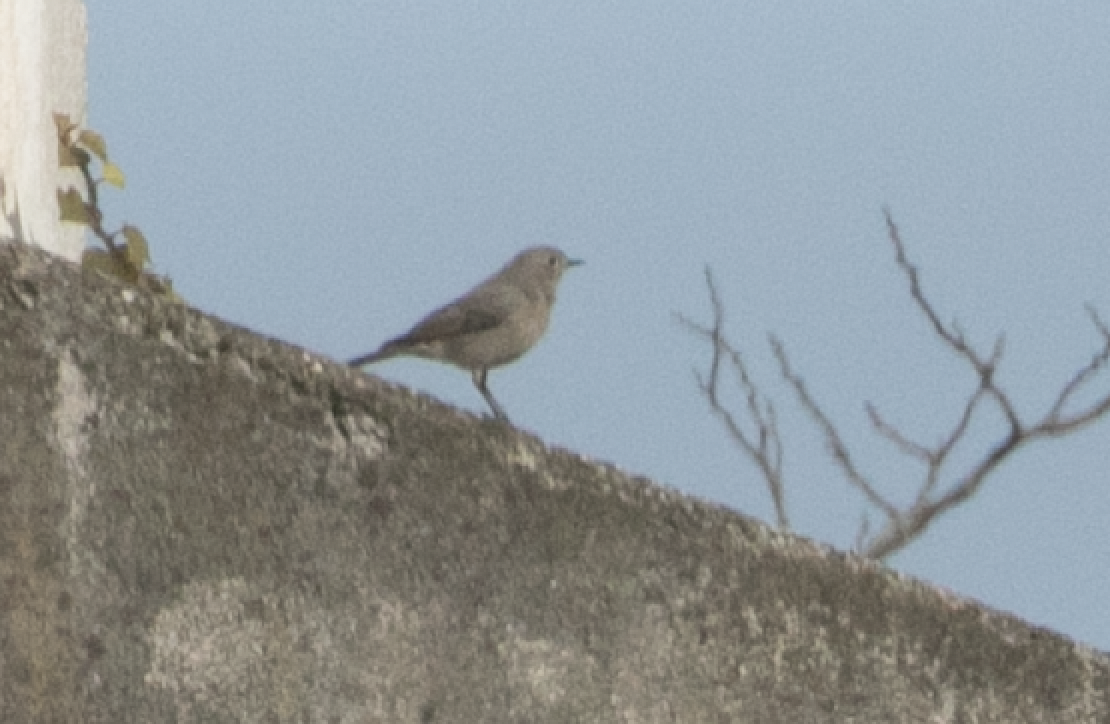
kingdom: Animalia
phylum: Chordata
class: Aves
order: Passeriformes
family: Muscicapidae
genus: Phoenicurus
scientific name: Phoenicurus ochruros
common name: Black redstart
